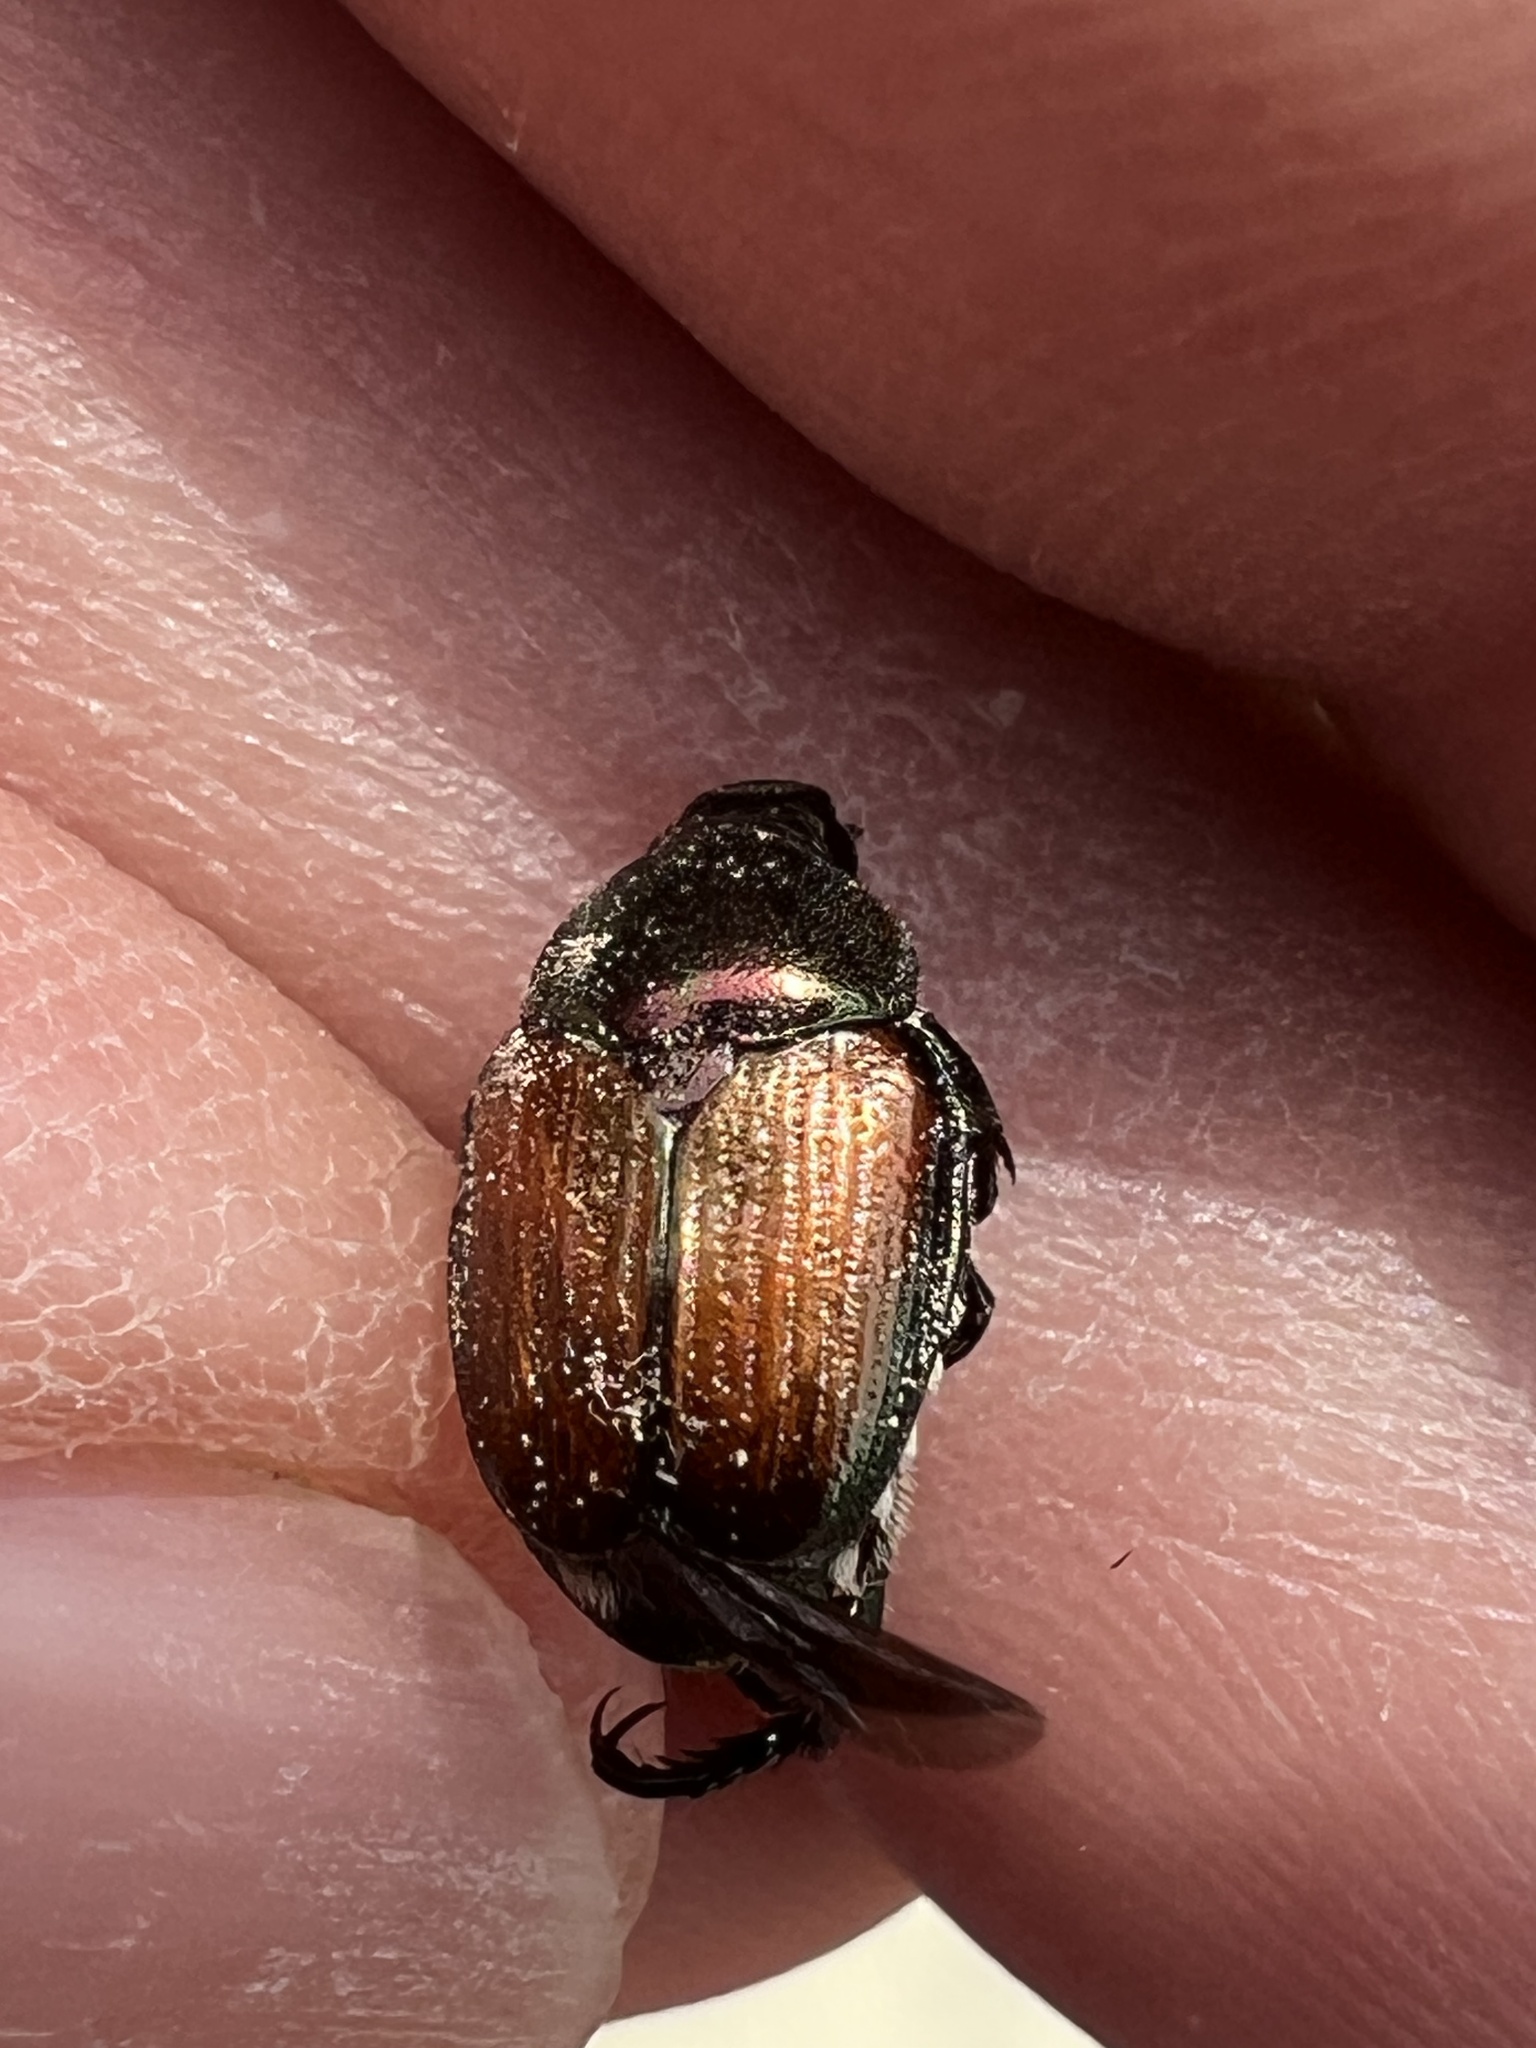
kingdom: Animalia
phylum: Arthropoda
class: Insecta
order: Coleoptera
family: Scarabaeidae
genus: Popillia
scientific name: Popillia japonica
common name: Japanese beetle
